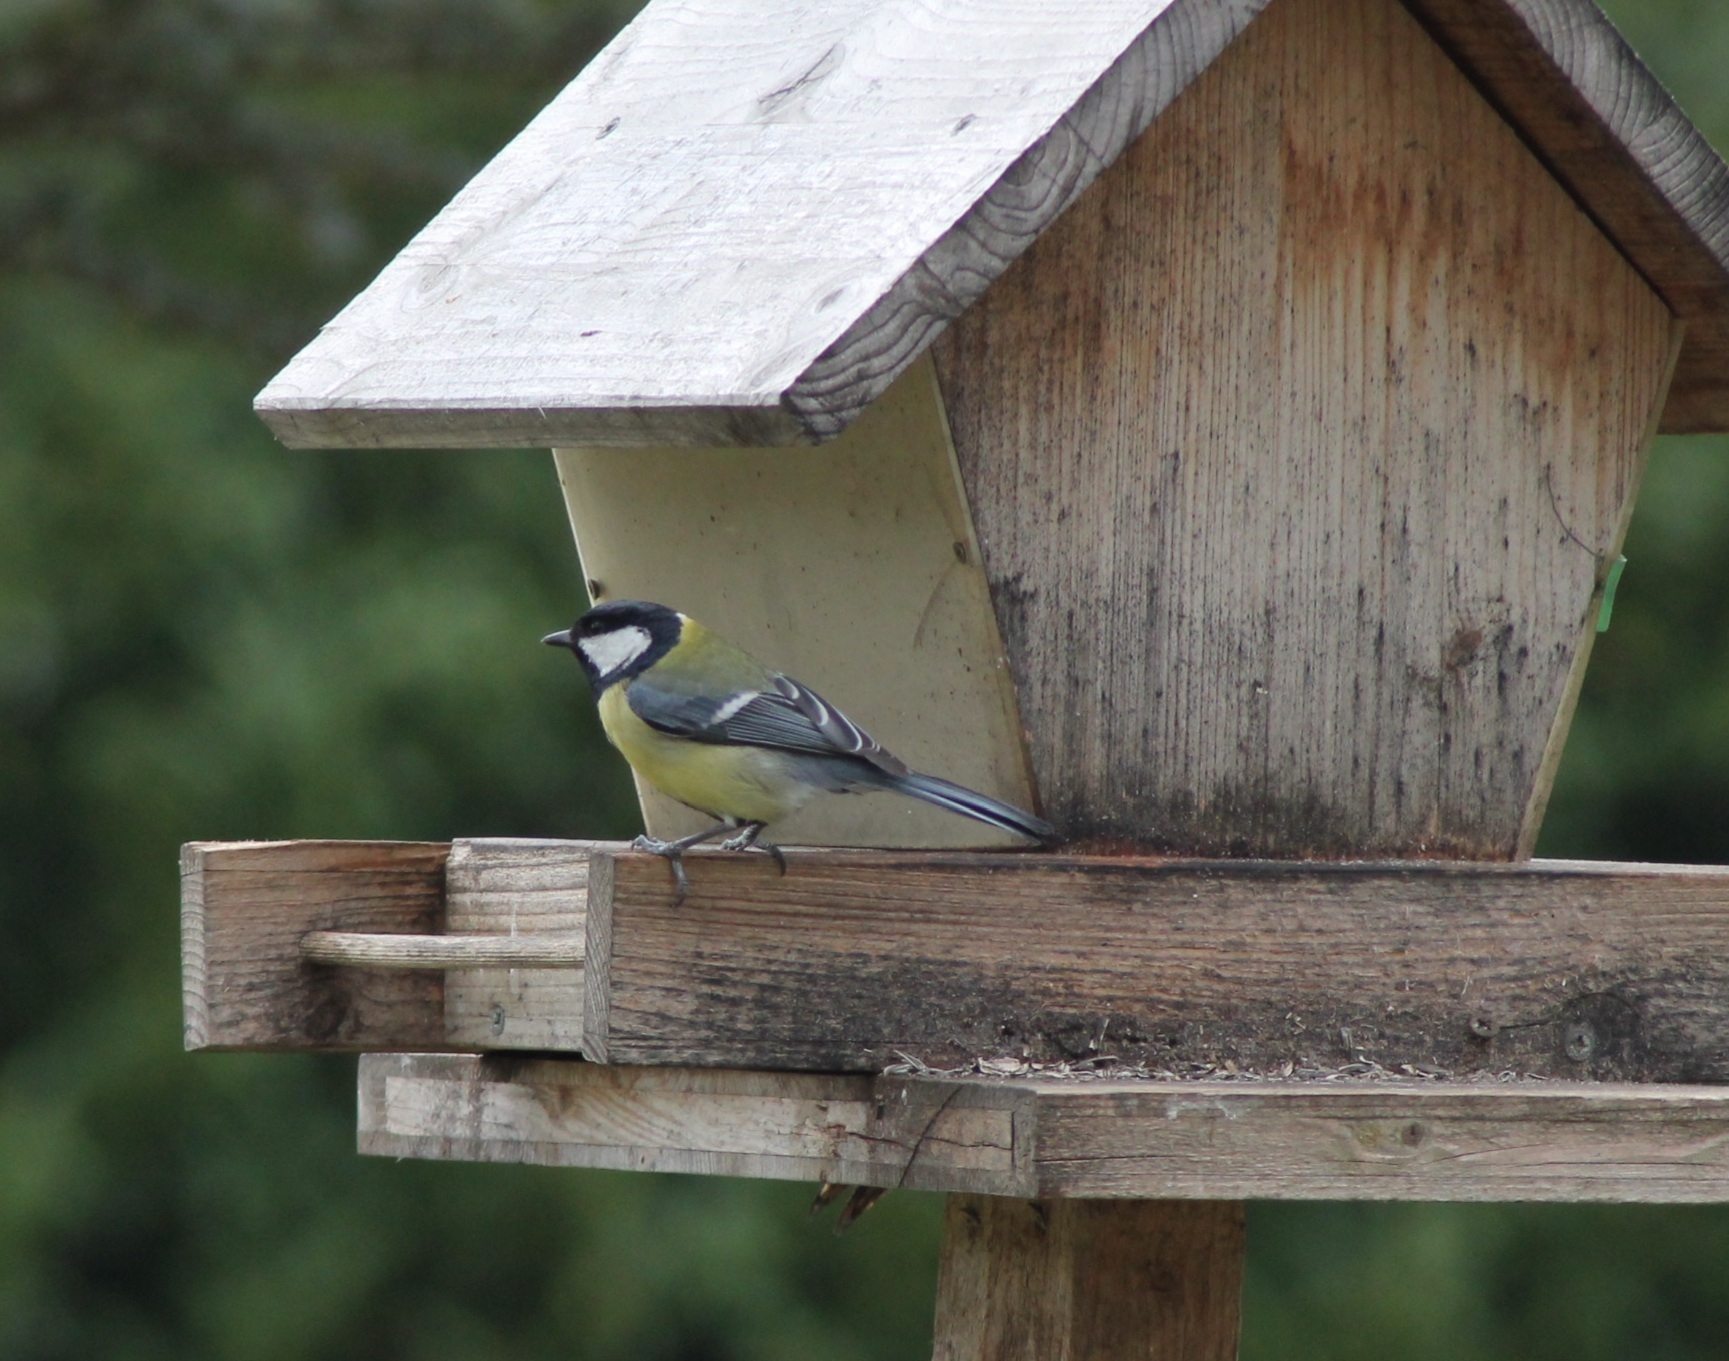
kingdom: Animalia
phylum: Chordata
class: Aves
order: Passeriformes
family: Paridae
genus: Parus
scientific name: Parus major
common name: Great tit
